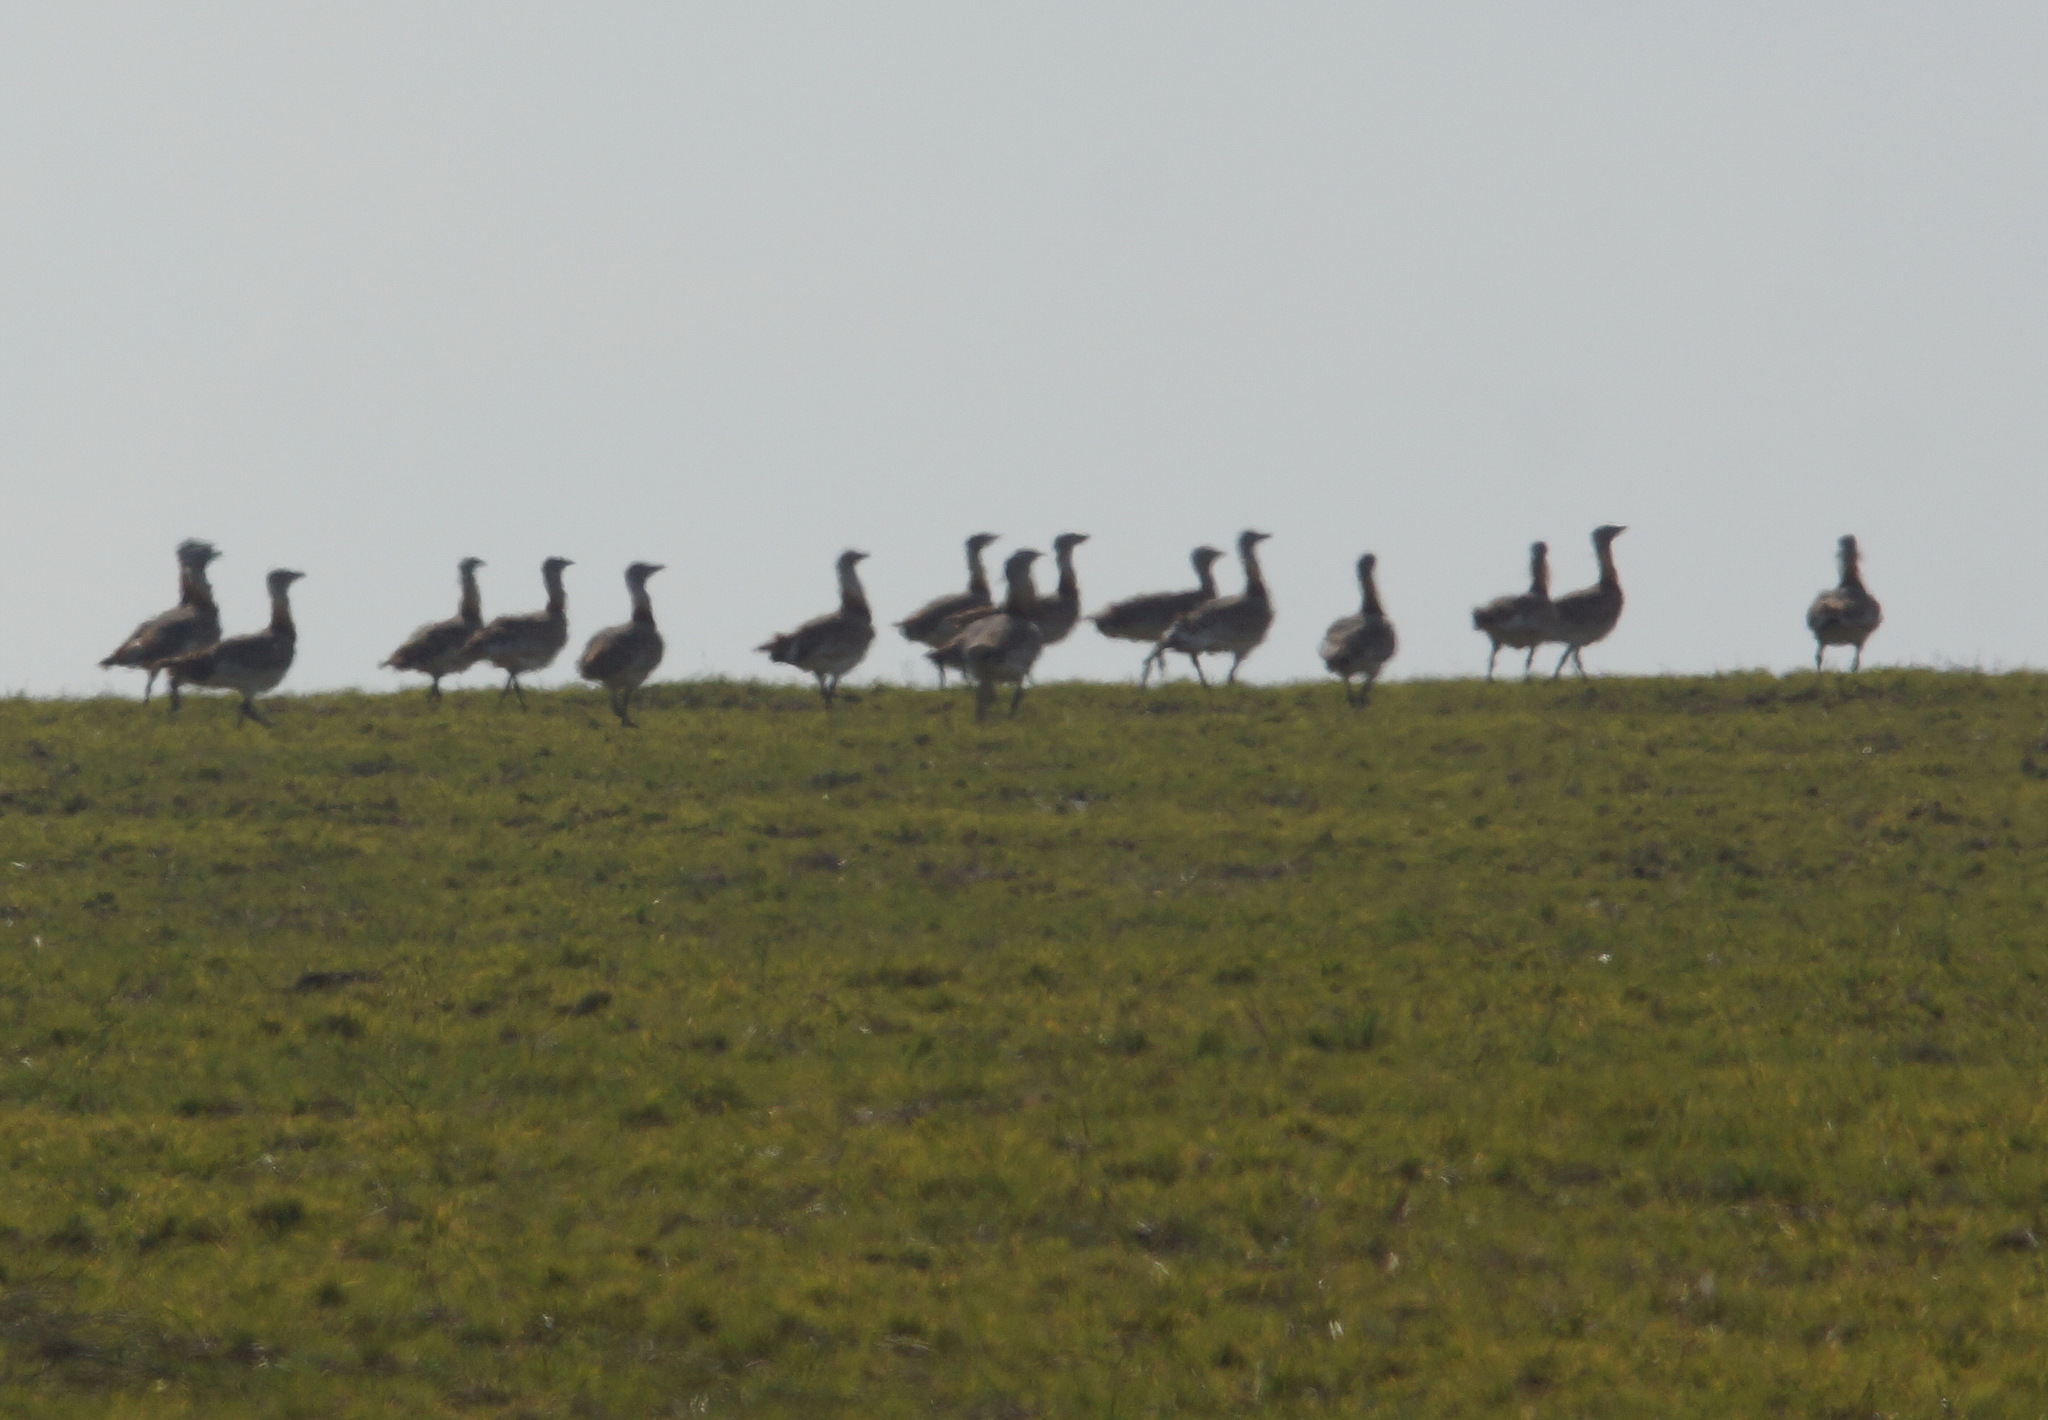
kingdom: Animalia
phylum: Chordata
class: Aves
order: Otidiformes
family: Otididae
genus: Otis
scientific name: Otis tarda
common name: Great bustard
